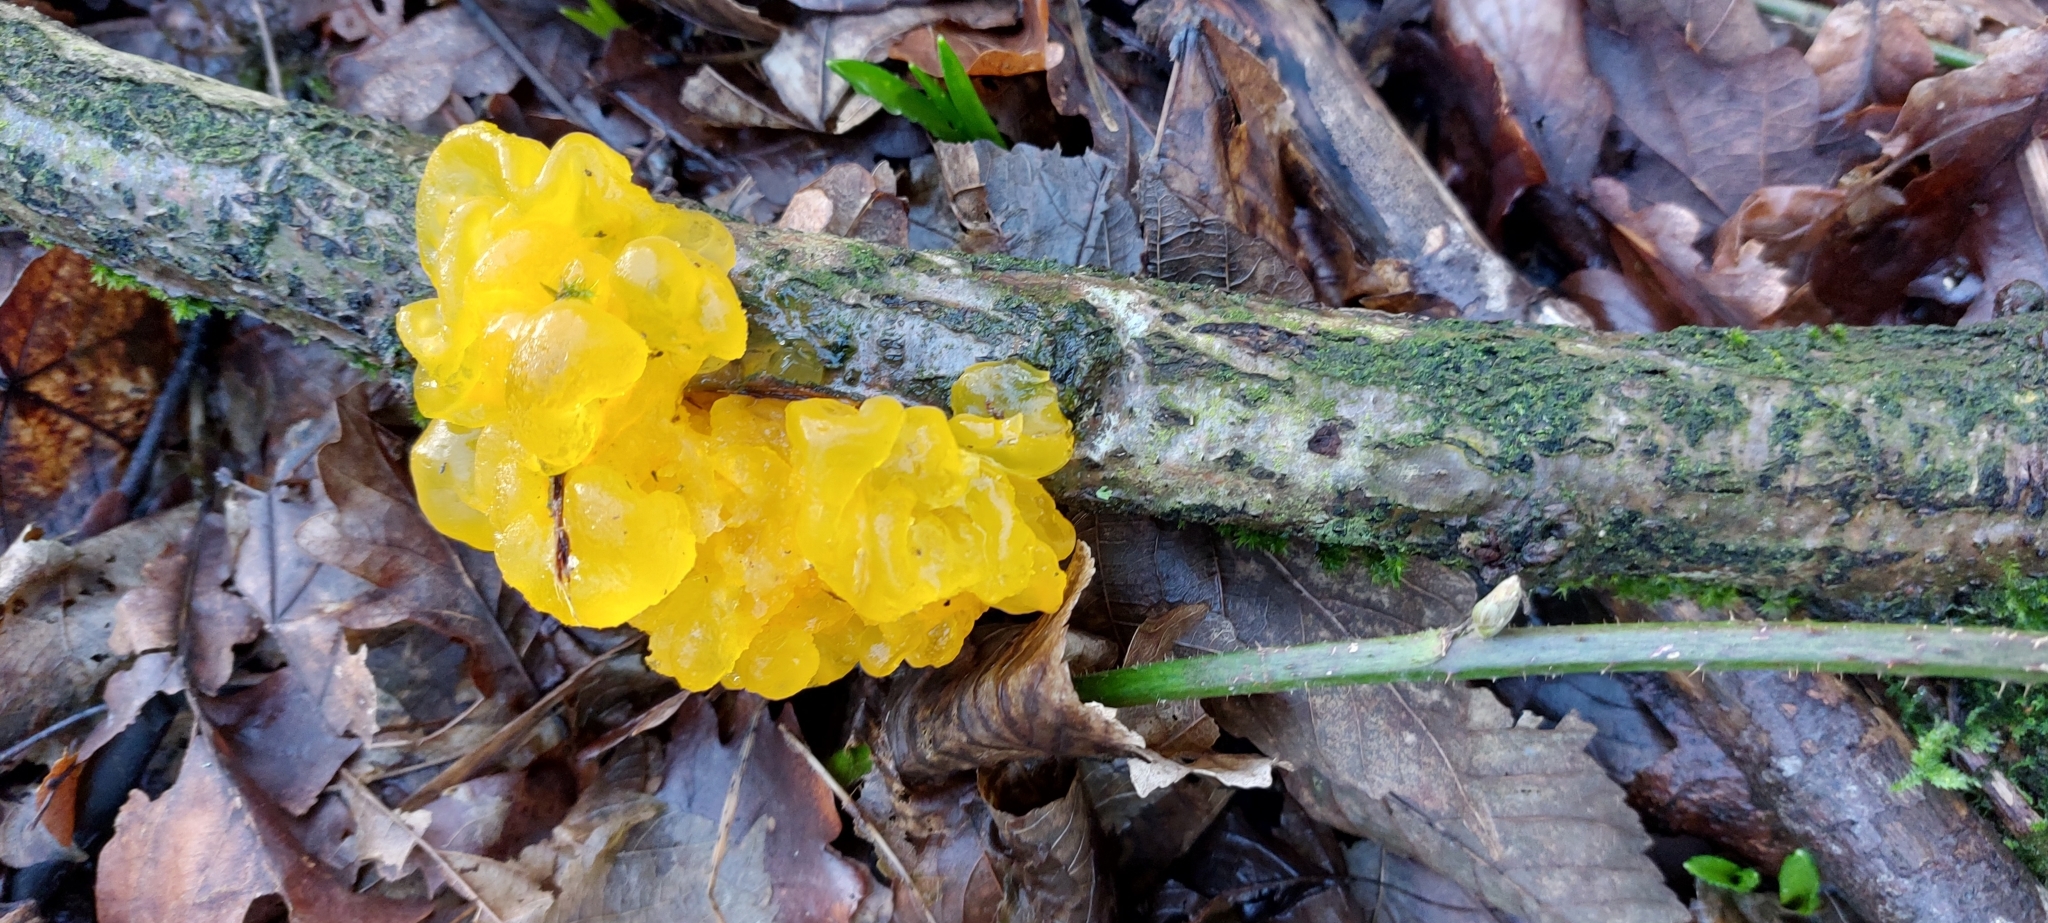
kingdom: Fungi
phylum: Basidiomycota
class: Tremellomycetes
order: Tremellales
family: Tremellaceae
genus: Tremella
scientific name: Tremella mesenterica
